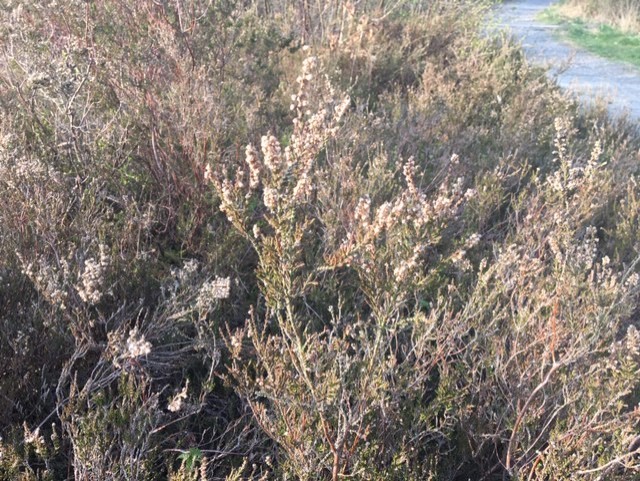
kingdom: Plantae
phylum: Tracheophyta
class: Magnoliopsida
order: Ericales
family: Ericaceae
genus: Calluna
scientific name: Calluna vulgaris
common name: Heather
